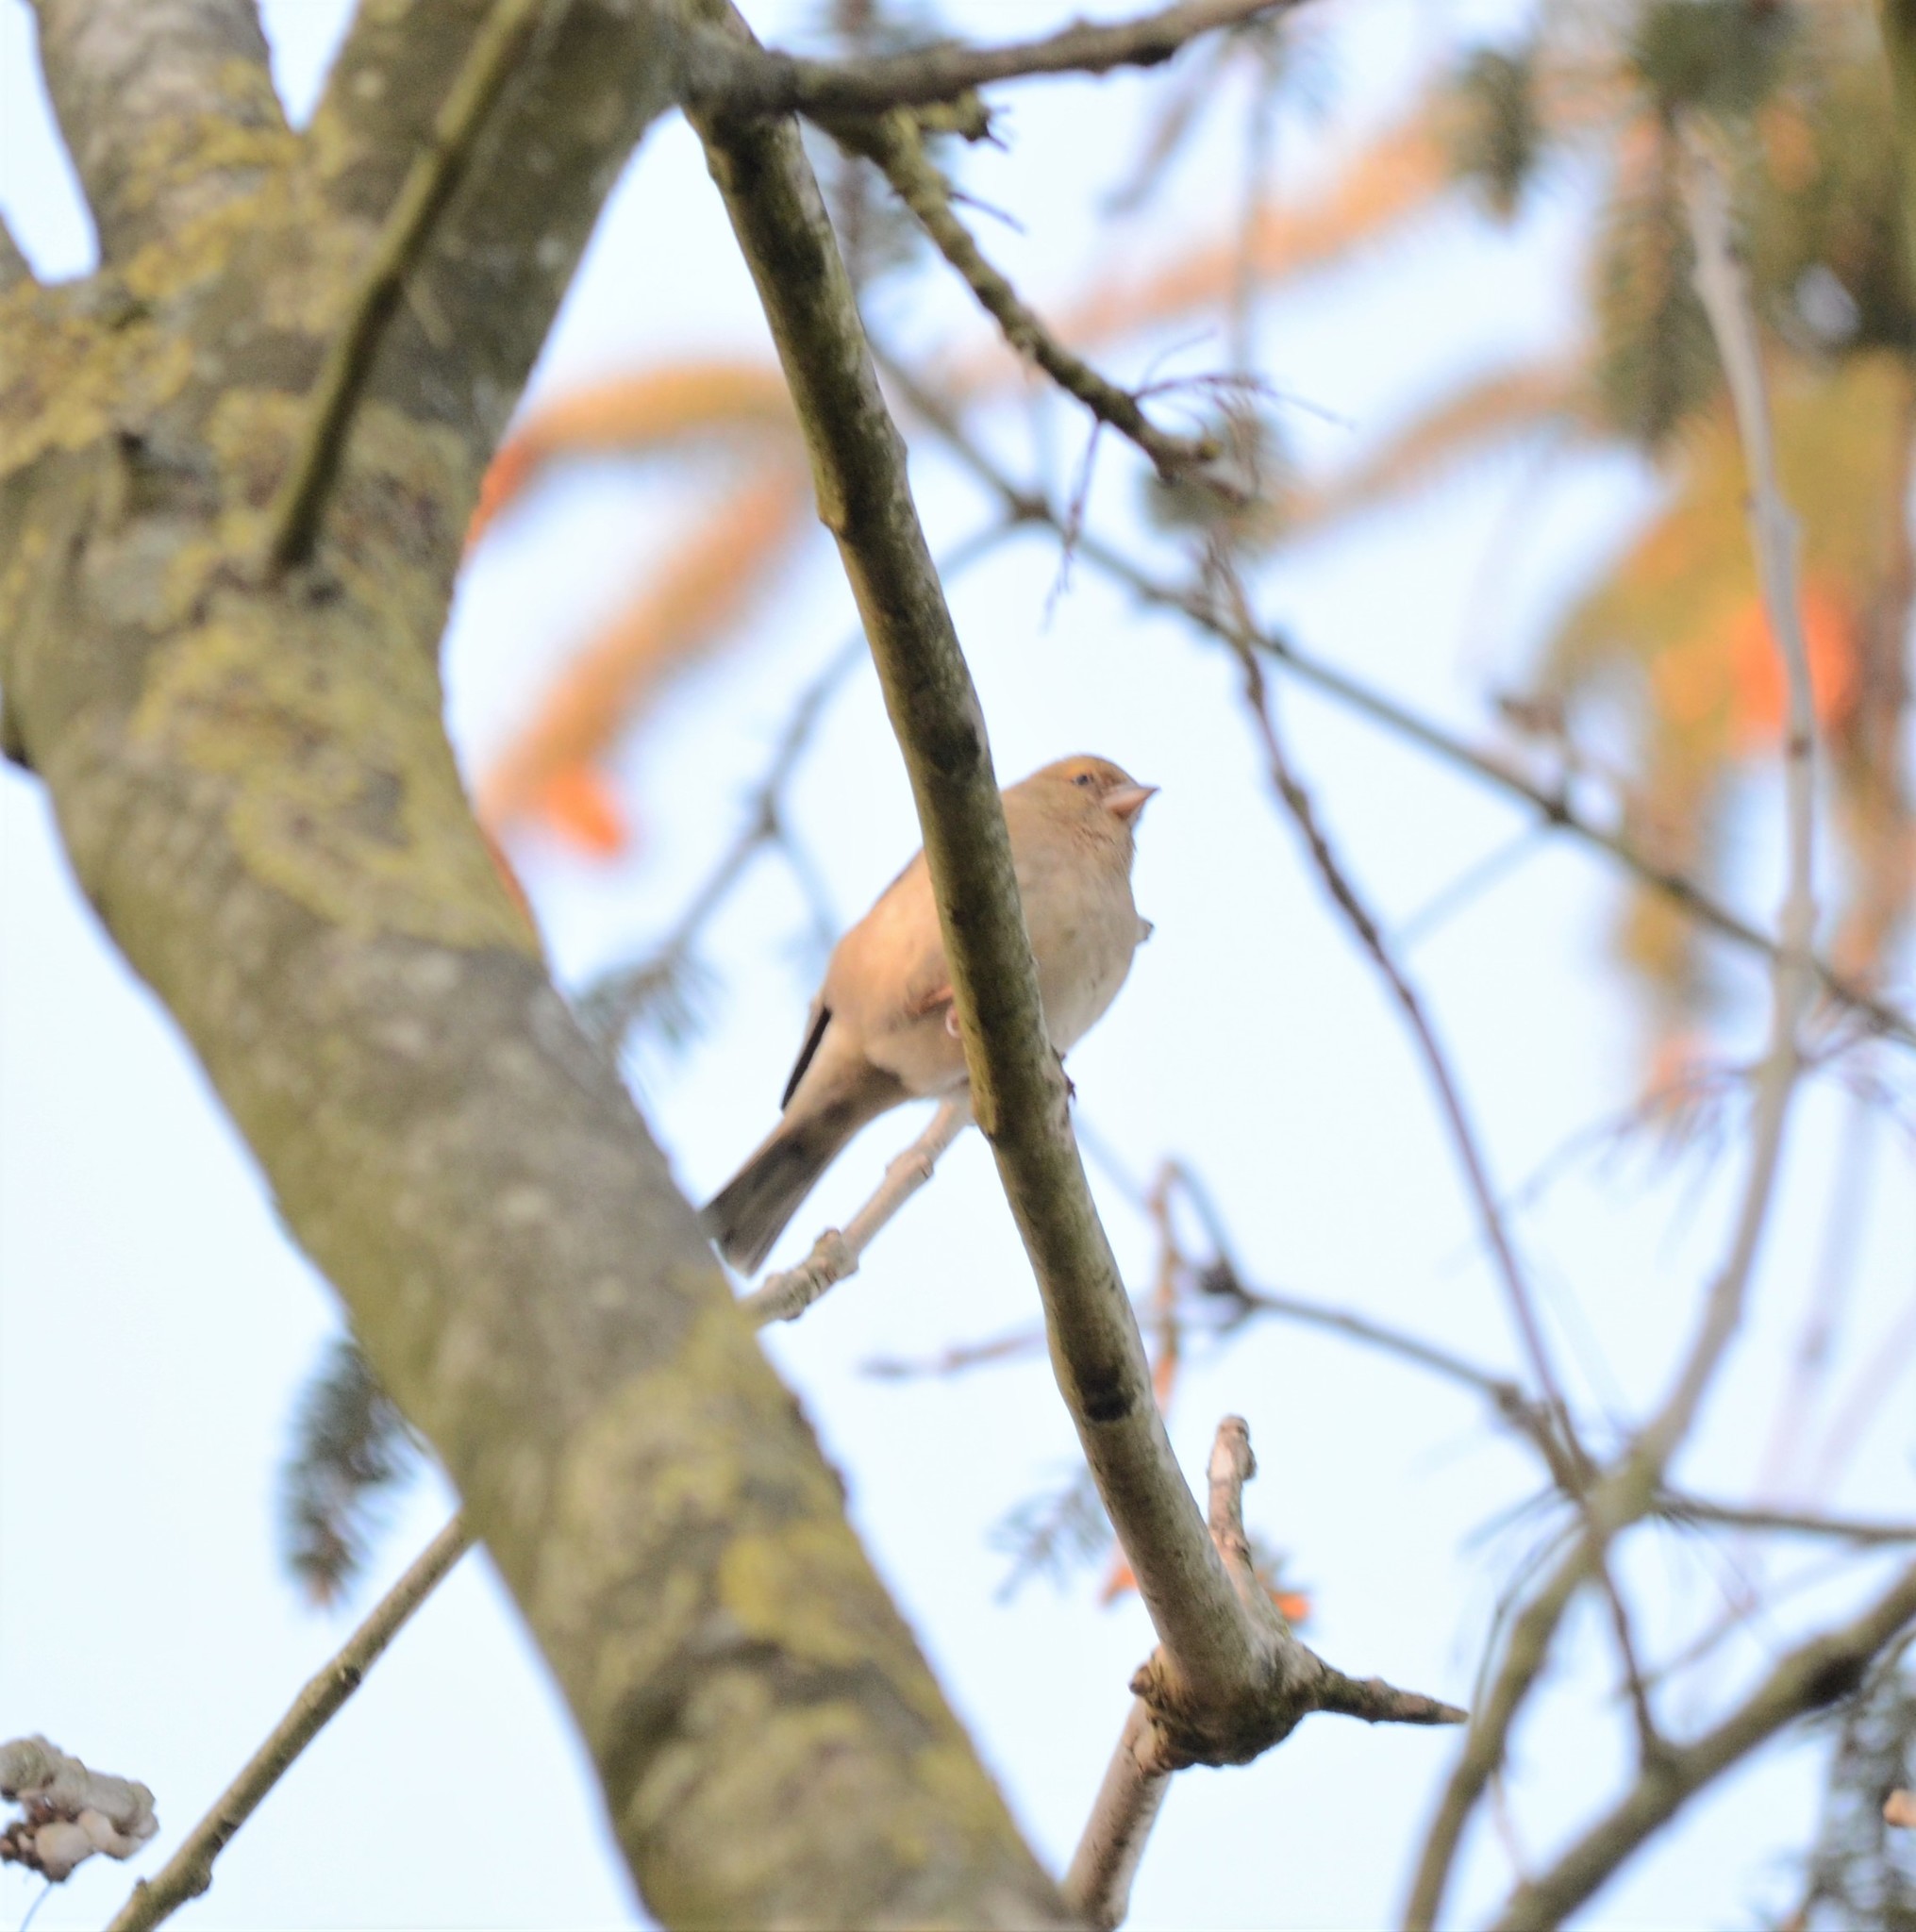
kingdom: Animalia
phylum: Chordata
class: Aves
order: Passeriformes
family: Fringillidae
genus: Fringilla
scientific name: Fringilla coelebs
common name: Common chaffinch
